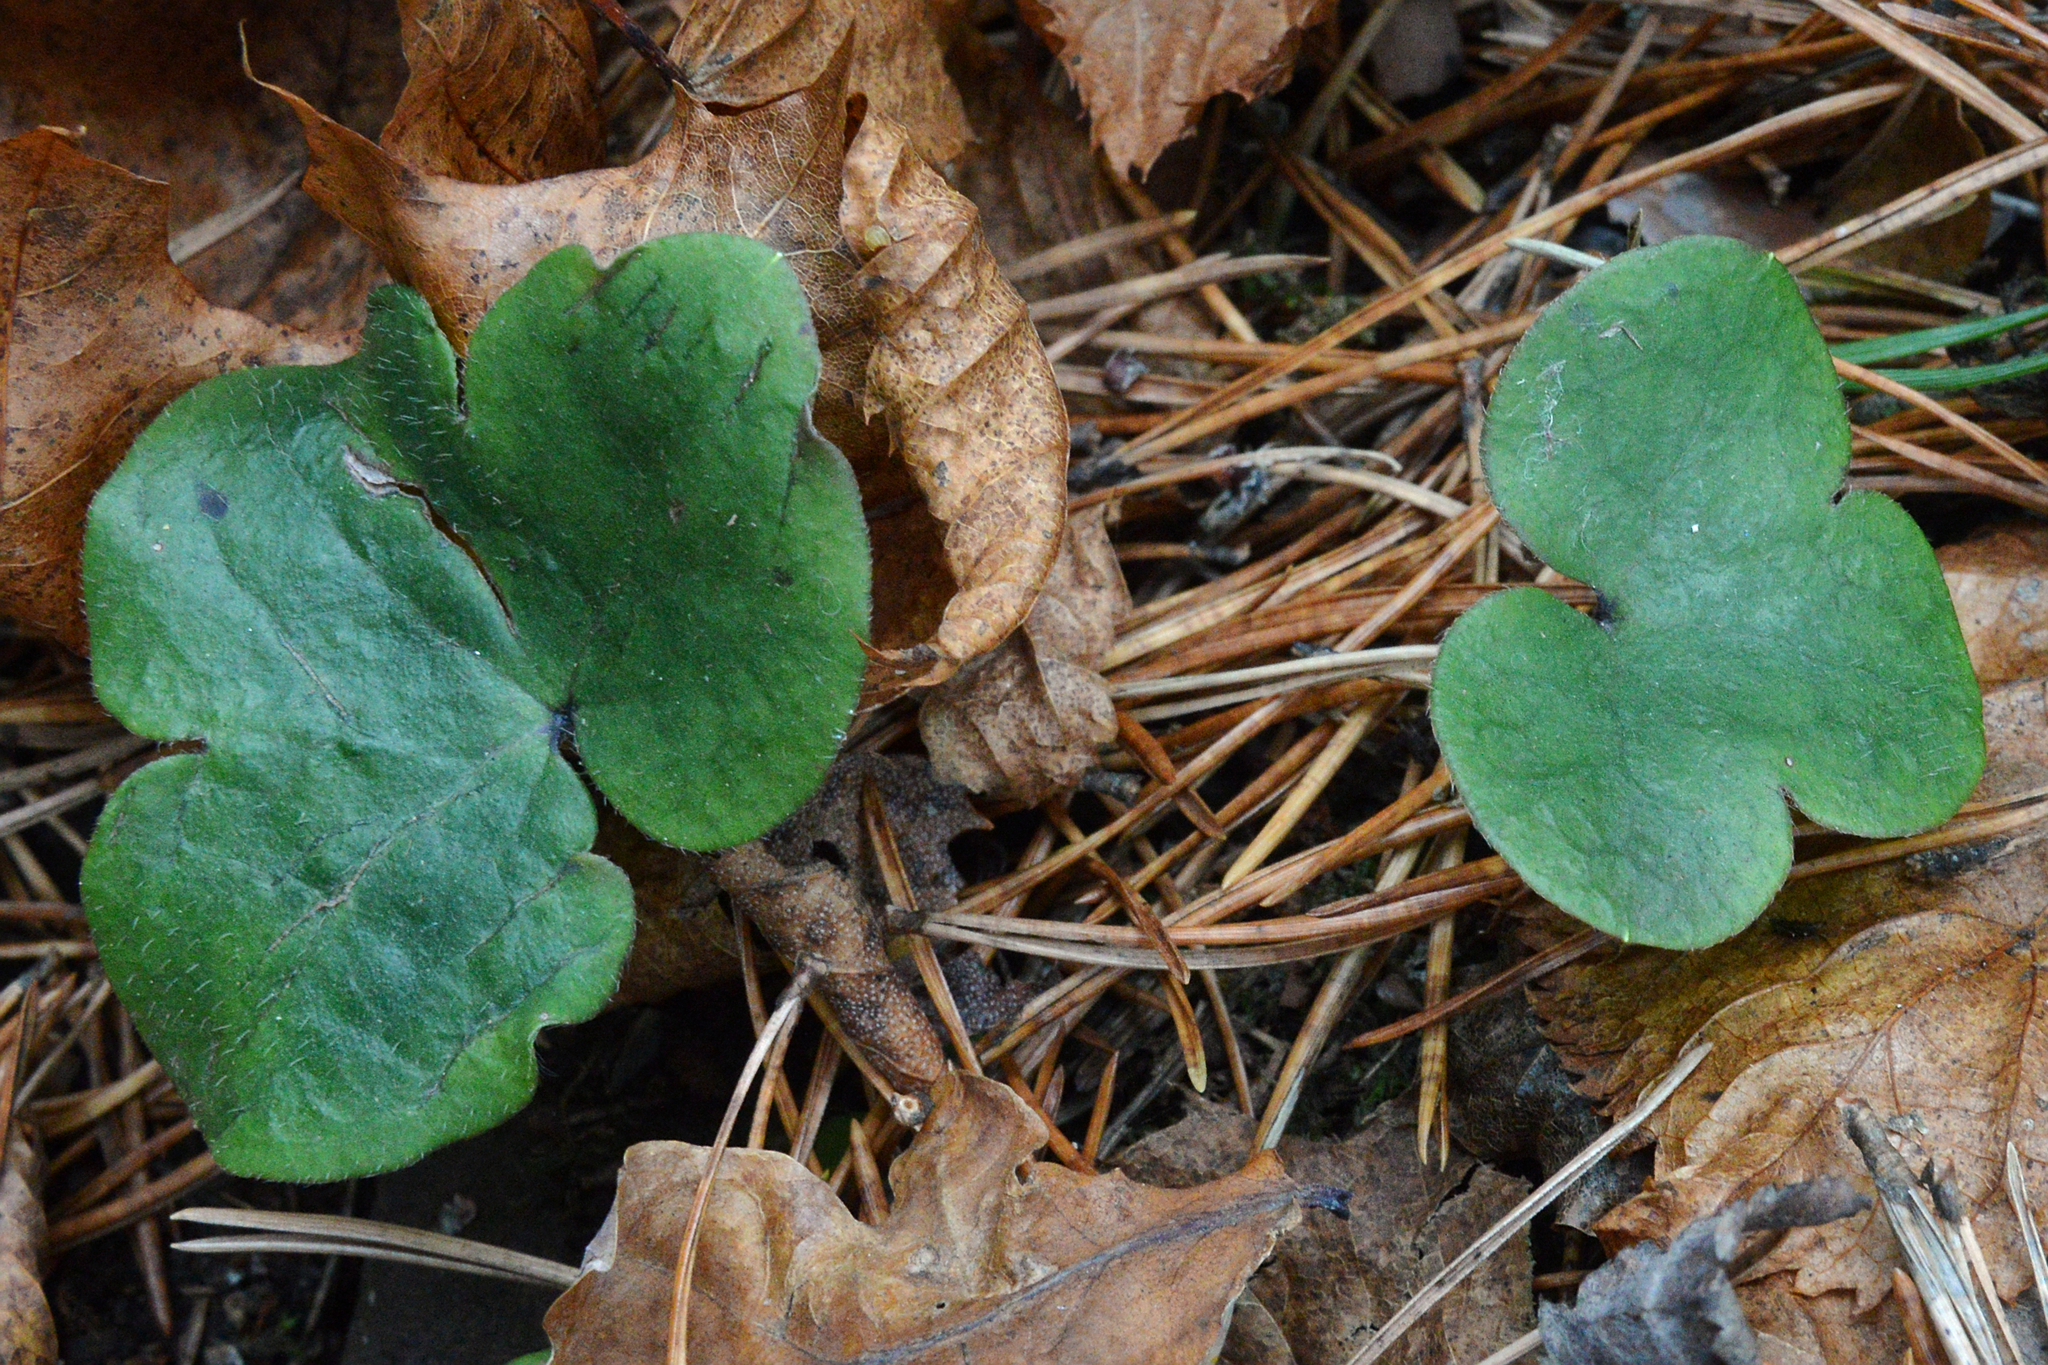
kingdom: Plantae
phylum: Tracheophyta
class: Magnoliopsida
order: Ranunculales
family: Ranunculaceae
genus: Hepatica
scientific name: Hepatica nobilis
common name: Liverleaf
